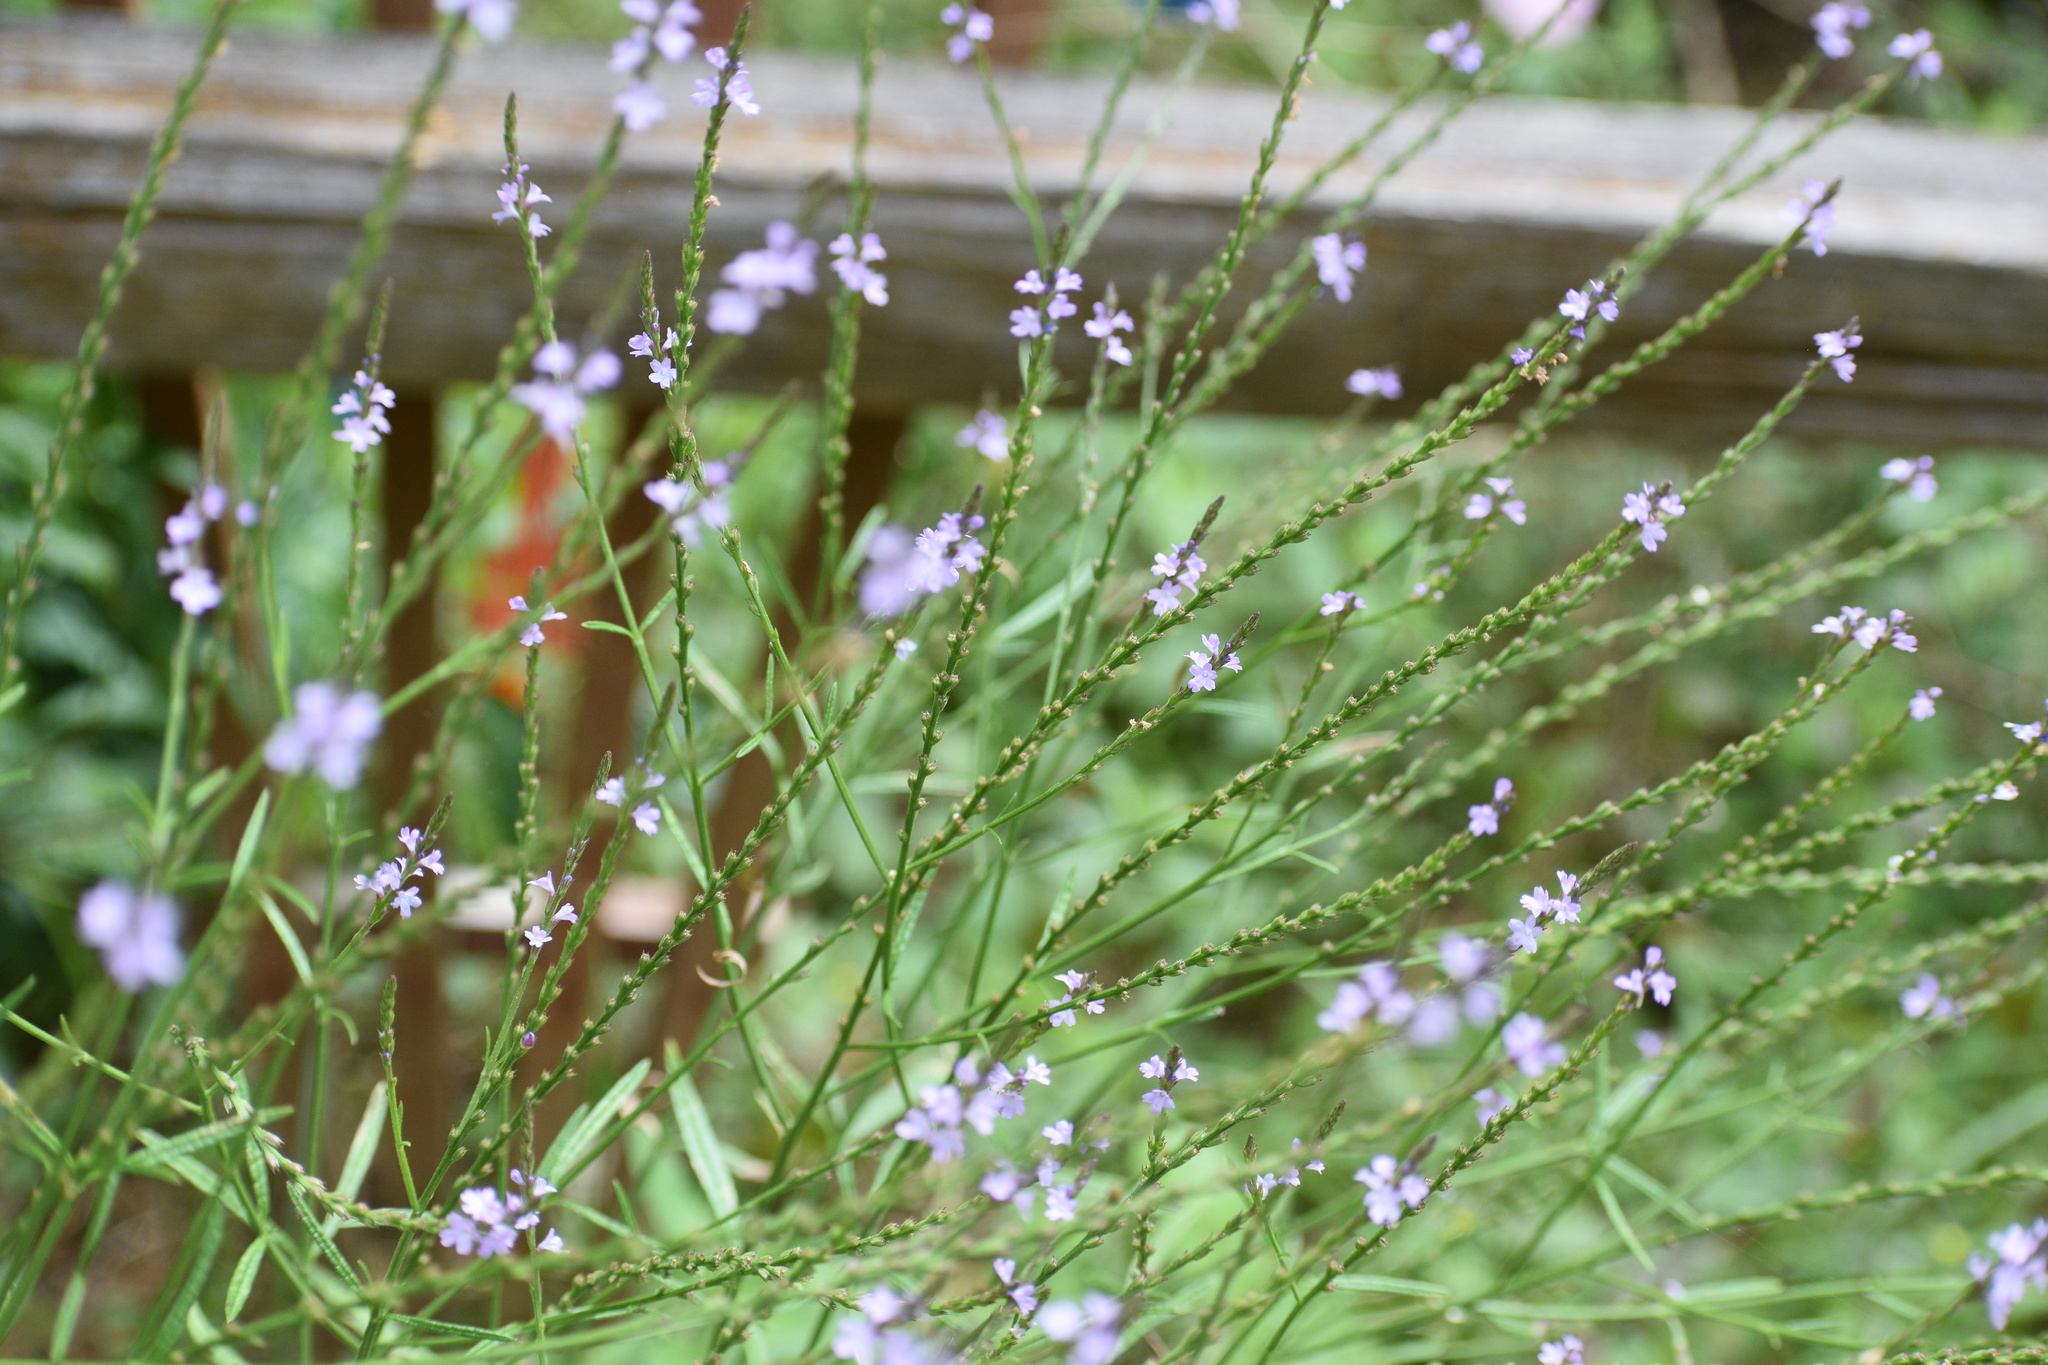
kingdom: Plantae
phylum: Tracheophyta
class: Magnoliopsida
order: Lamiales
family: Verbenaceae
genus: Verbena
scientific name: Verbena halei
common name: Texas vervain
